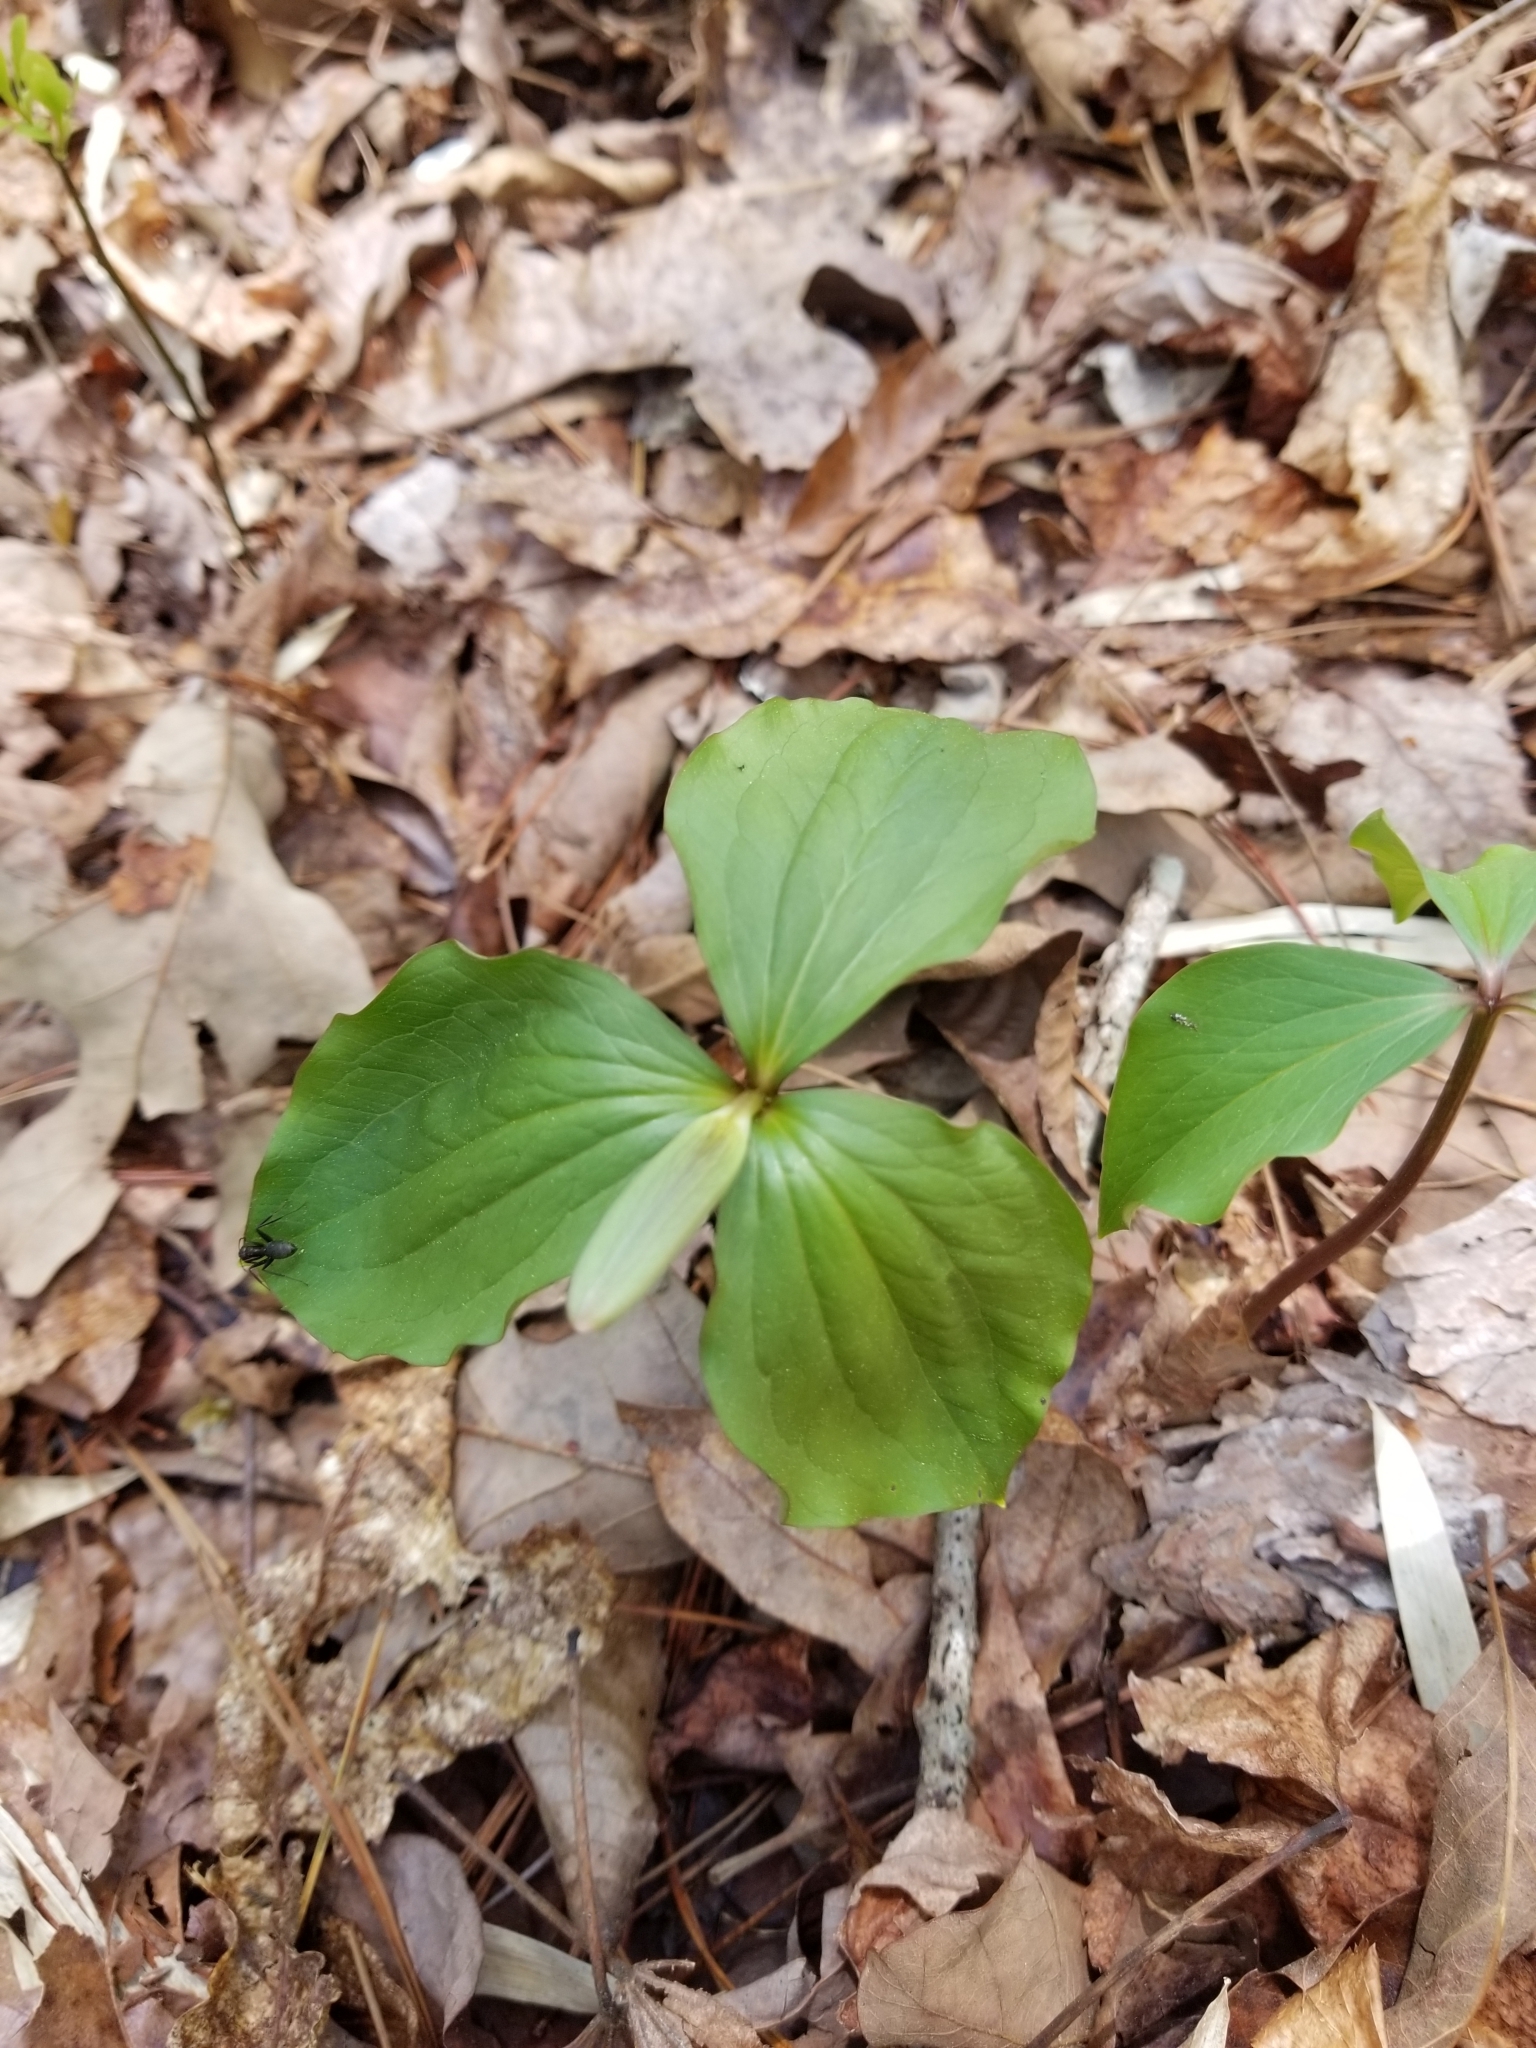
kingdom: Plantae
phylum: Tracheophyta
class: Liliopsida
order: Liliales
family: Melanthiaceae
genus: Trillium
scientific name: Trillium catesbaei
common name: Bashful trillium
